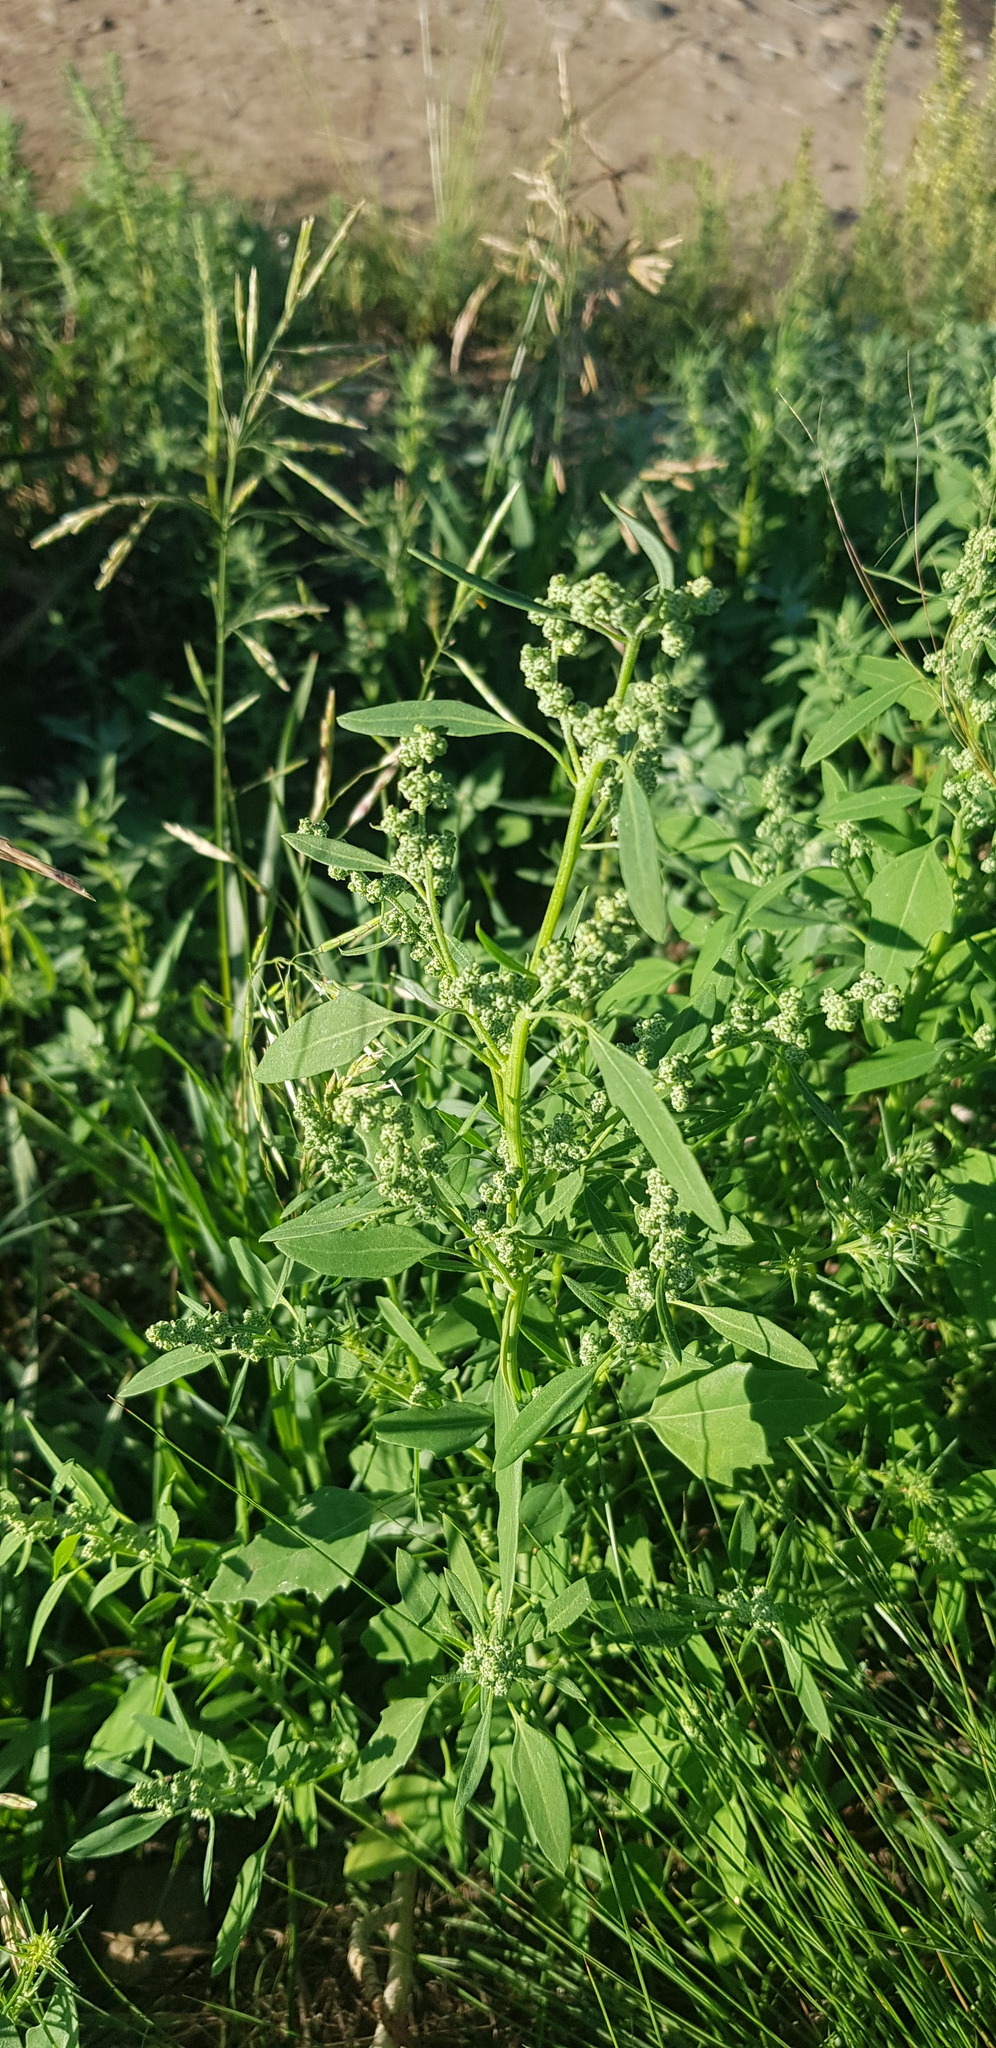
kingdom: Plantae
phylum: Tracheophyta
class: Magnoliopsida
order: Caryophyllales
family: Amaranthaceae
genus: Chenopodium
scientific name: Chenopodium album
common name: Fat-hen
